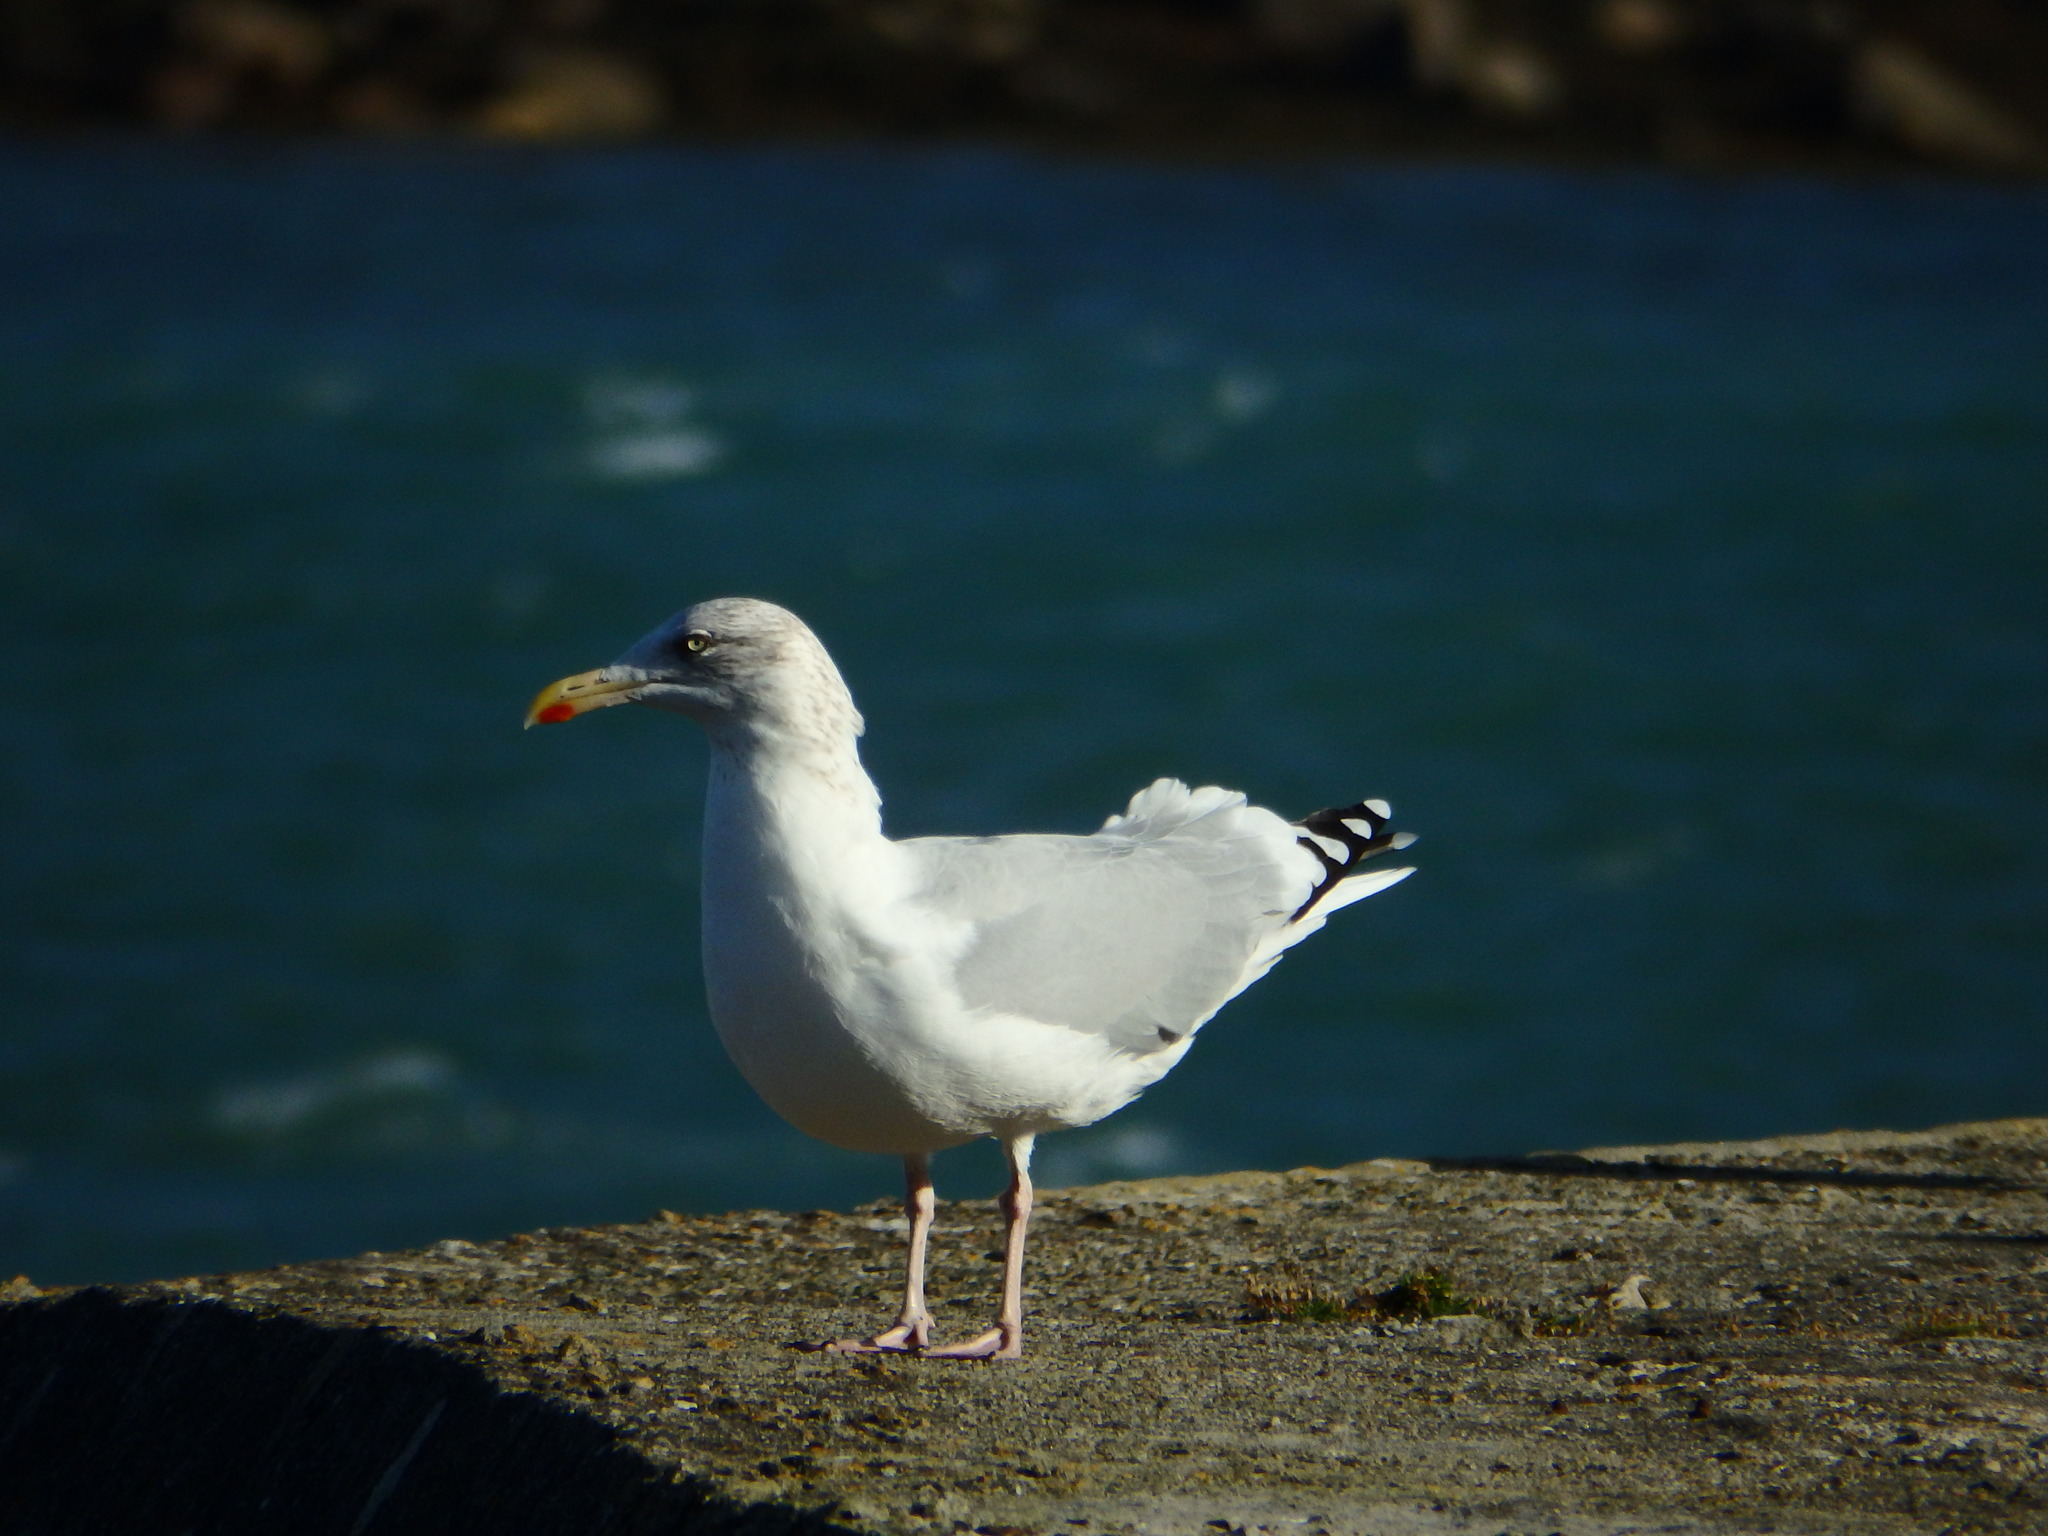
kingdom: Animalia
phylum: Chordata
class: Aves
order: Charadriiformes
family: Laridae
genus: Larus
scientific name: Larus argentatus
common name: Herring gull
